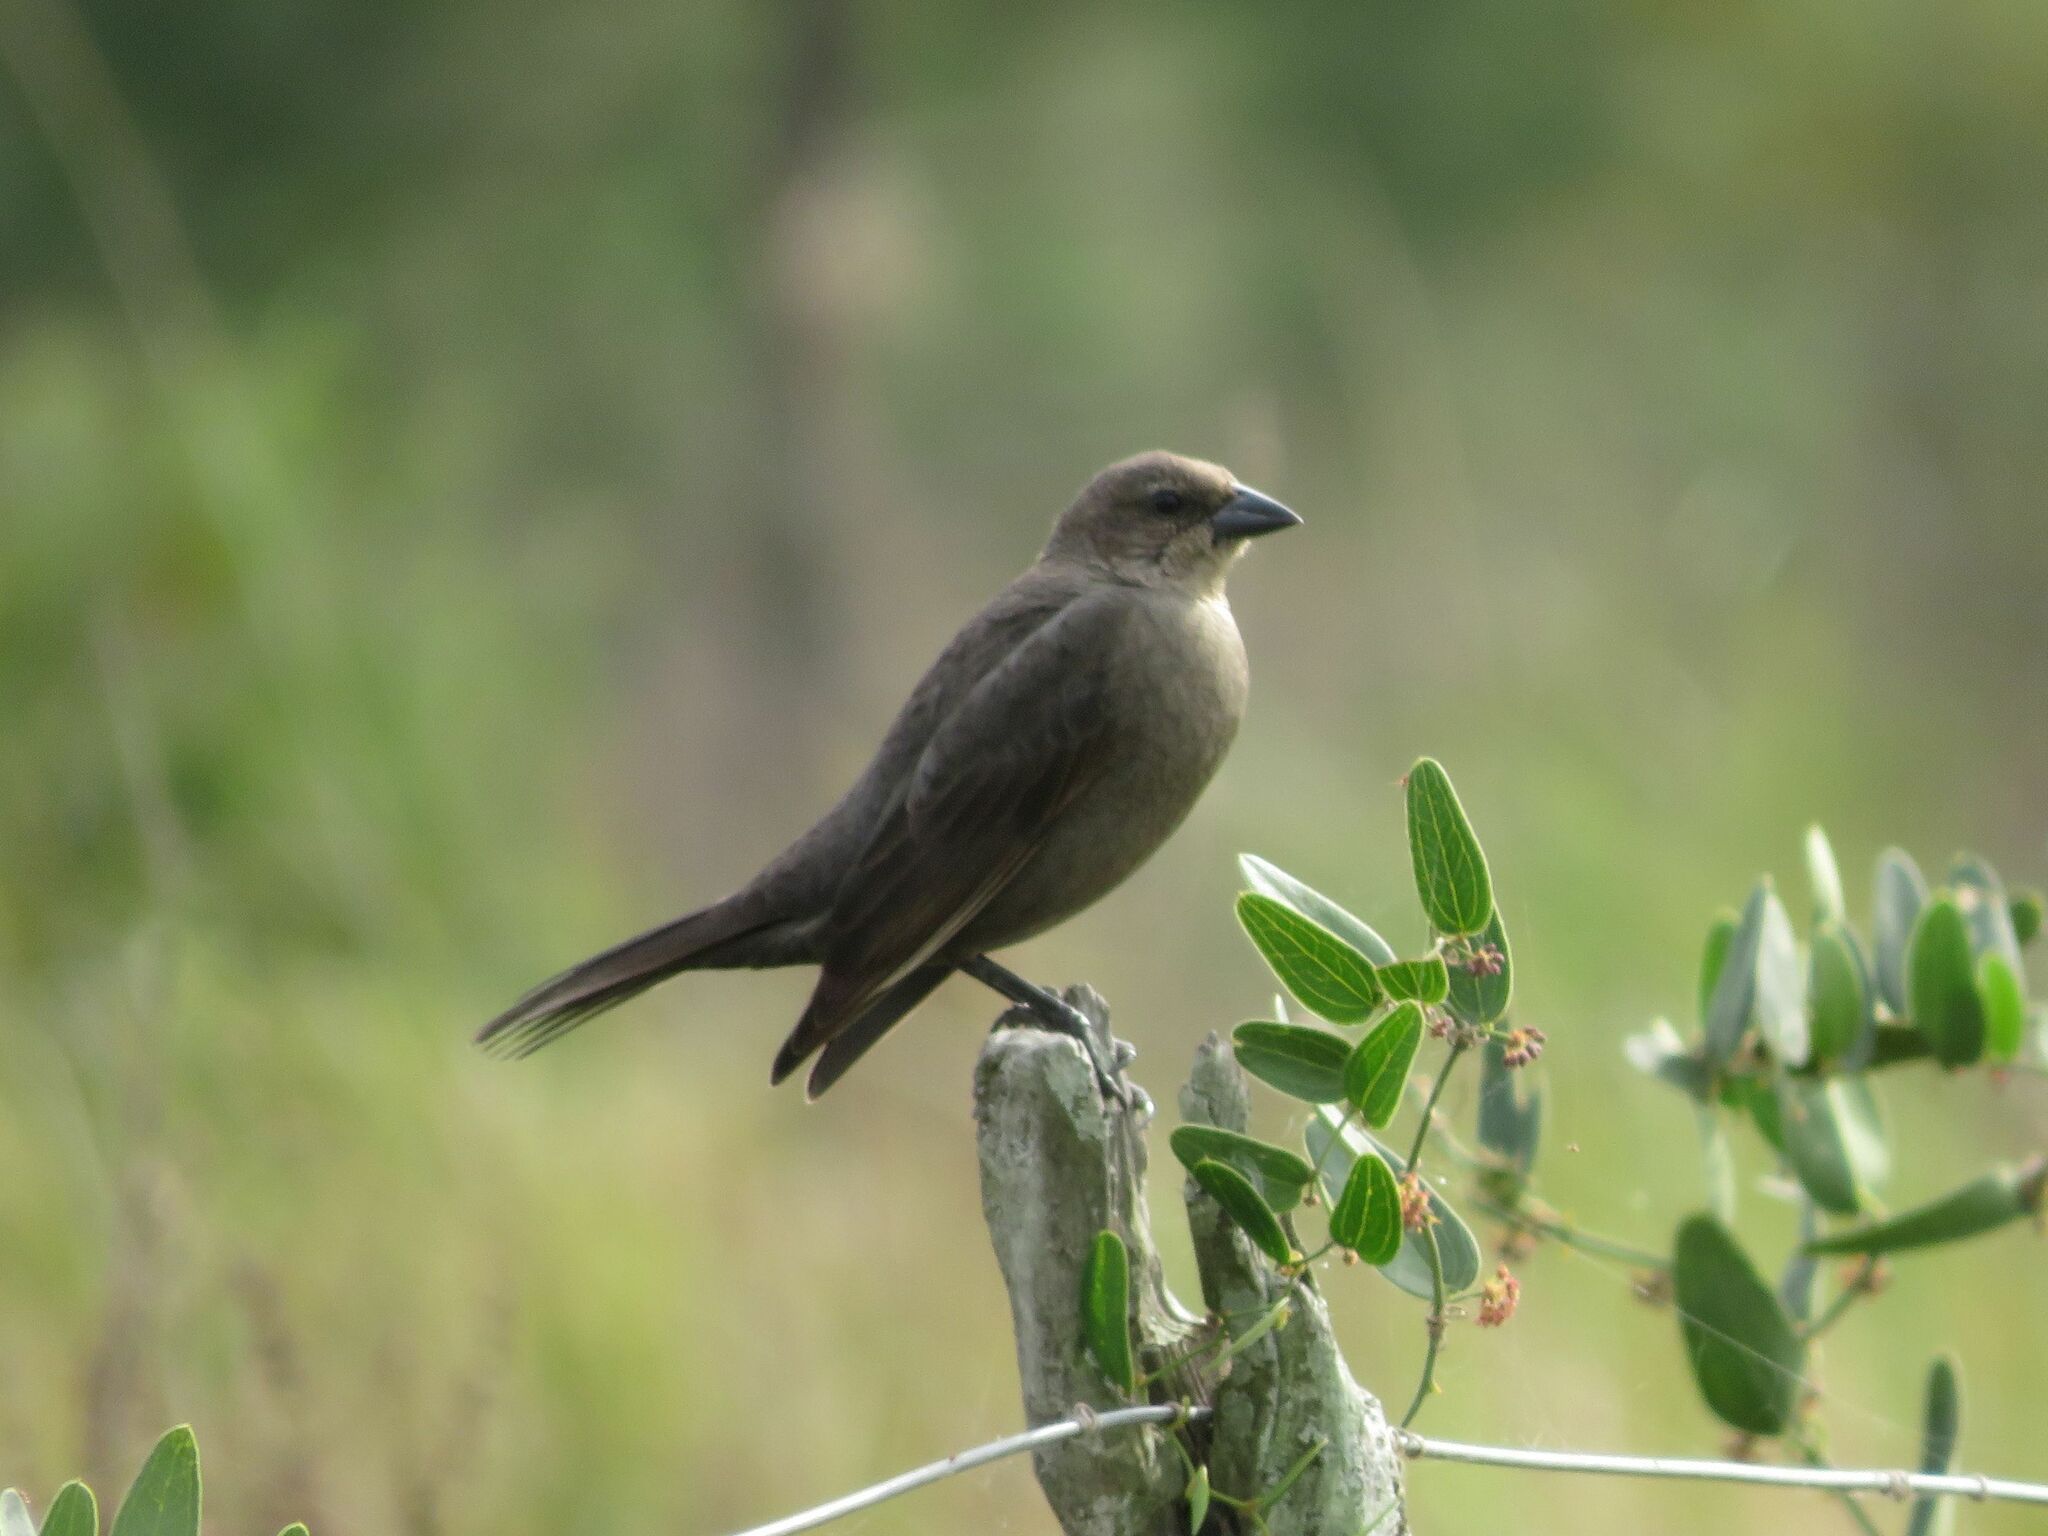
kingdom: Animalia
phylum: Chordata
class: Aves
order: Passeriformes
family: Icteridae
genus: Molothrus
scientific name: Molothrus bonariensis
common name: Shiny cowbird
